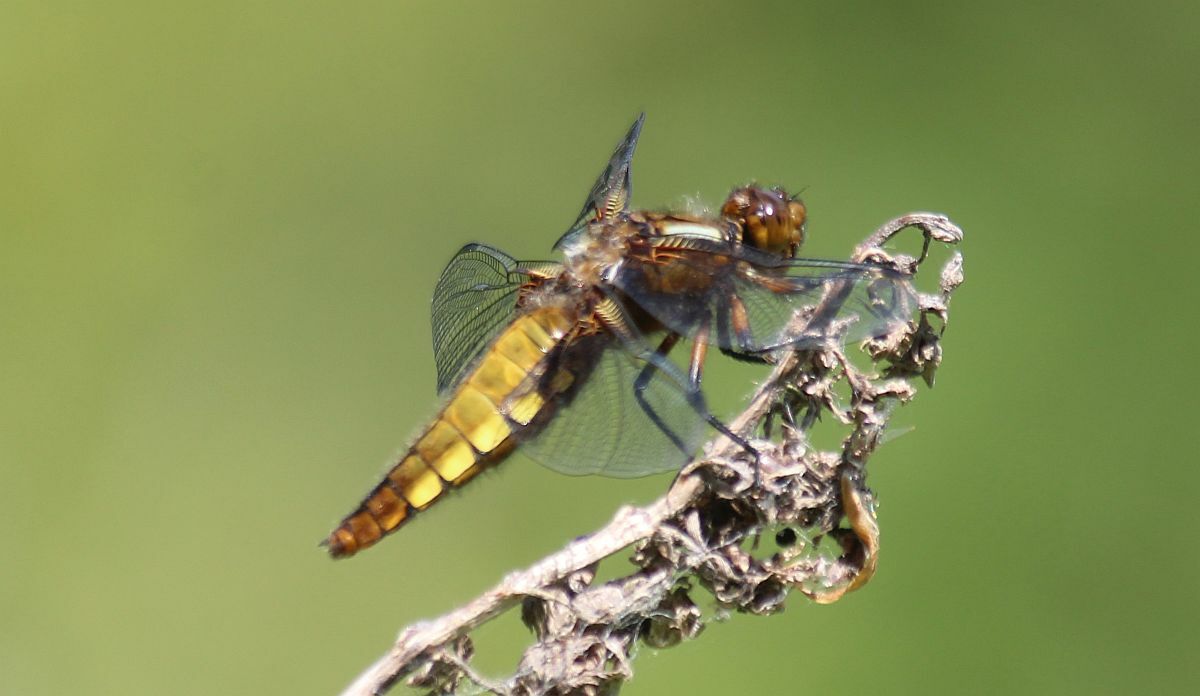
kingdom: Animalia
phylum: Arthropoda
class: Insecta
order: Odonata
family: Libellulidae
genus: Libellula
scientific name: Libellula depressa
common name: Broad-bodied chaser
